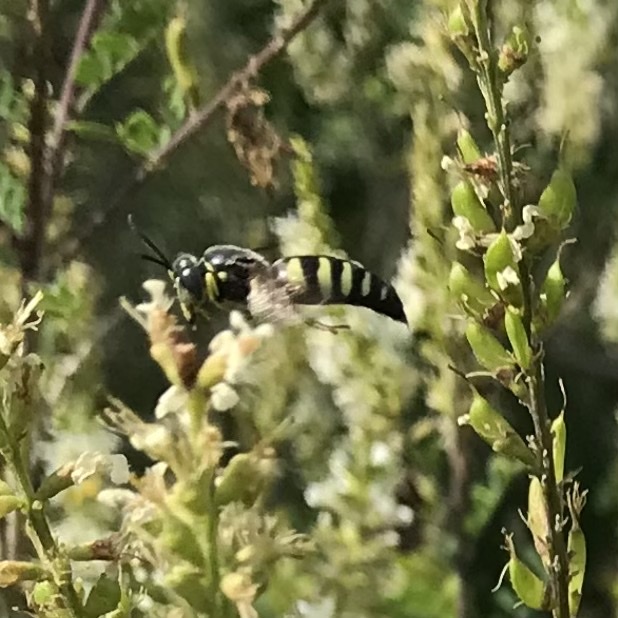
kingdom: Animalia
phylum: Arthropoda
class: Insecta
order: Hymenoptera
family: Crabronidae
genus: Bicyrtes
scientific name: Bicyrtes quadrifasciatus
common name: Four-banded stink bug hunter wasp
